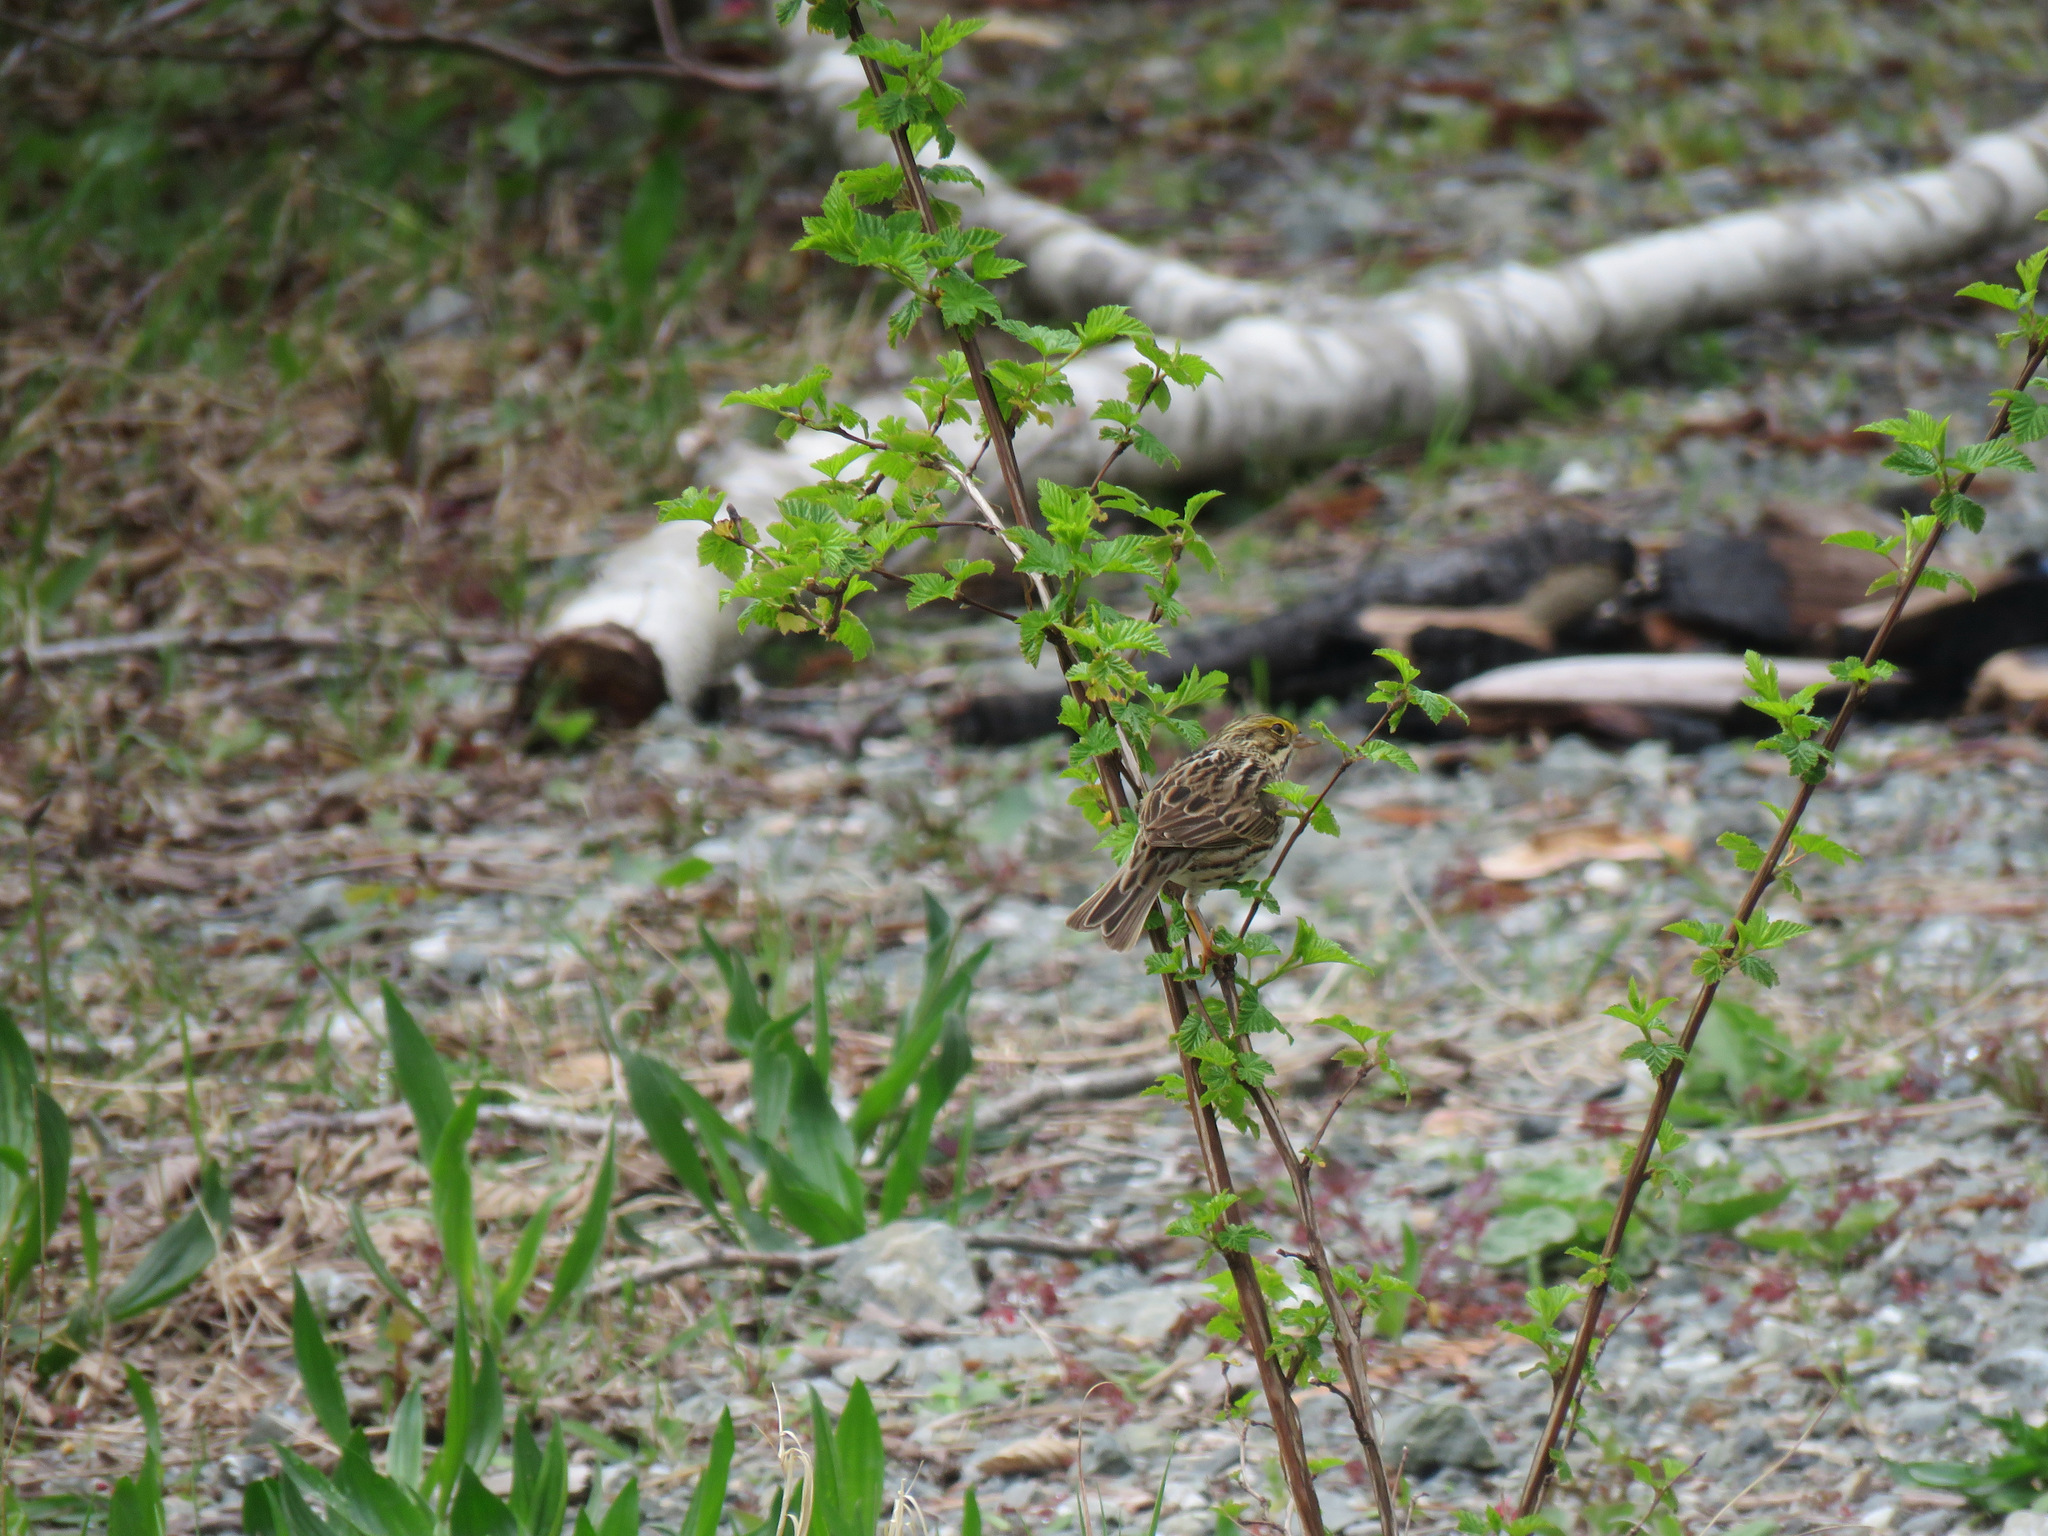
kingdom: Animalia
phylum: Chordata
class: Aves
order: Passeriformes
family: Passerellidae
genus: Passerculus
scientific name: Passerculus sandwichensis
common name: Savannah sparrow
